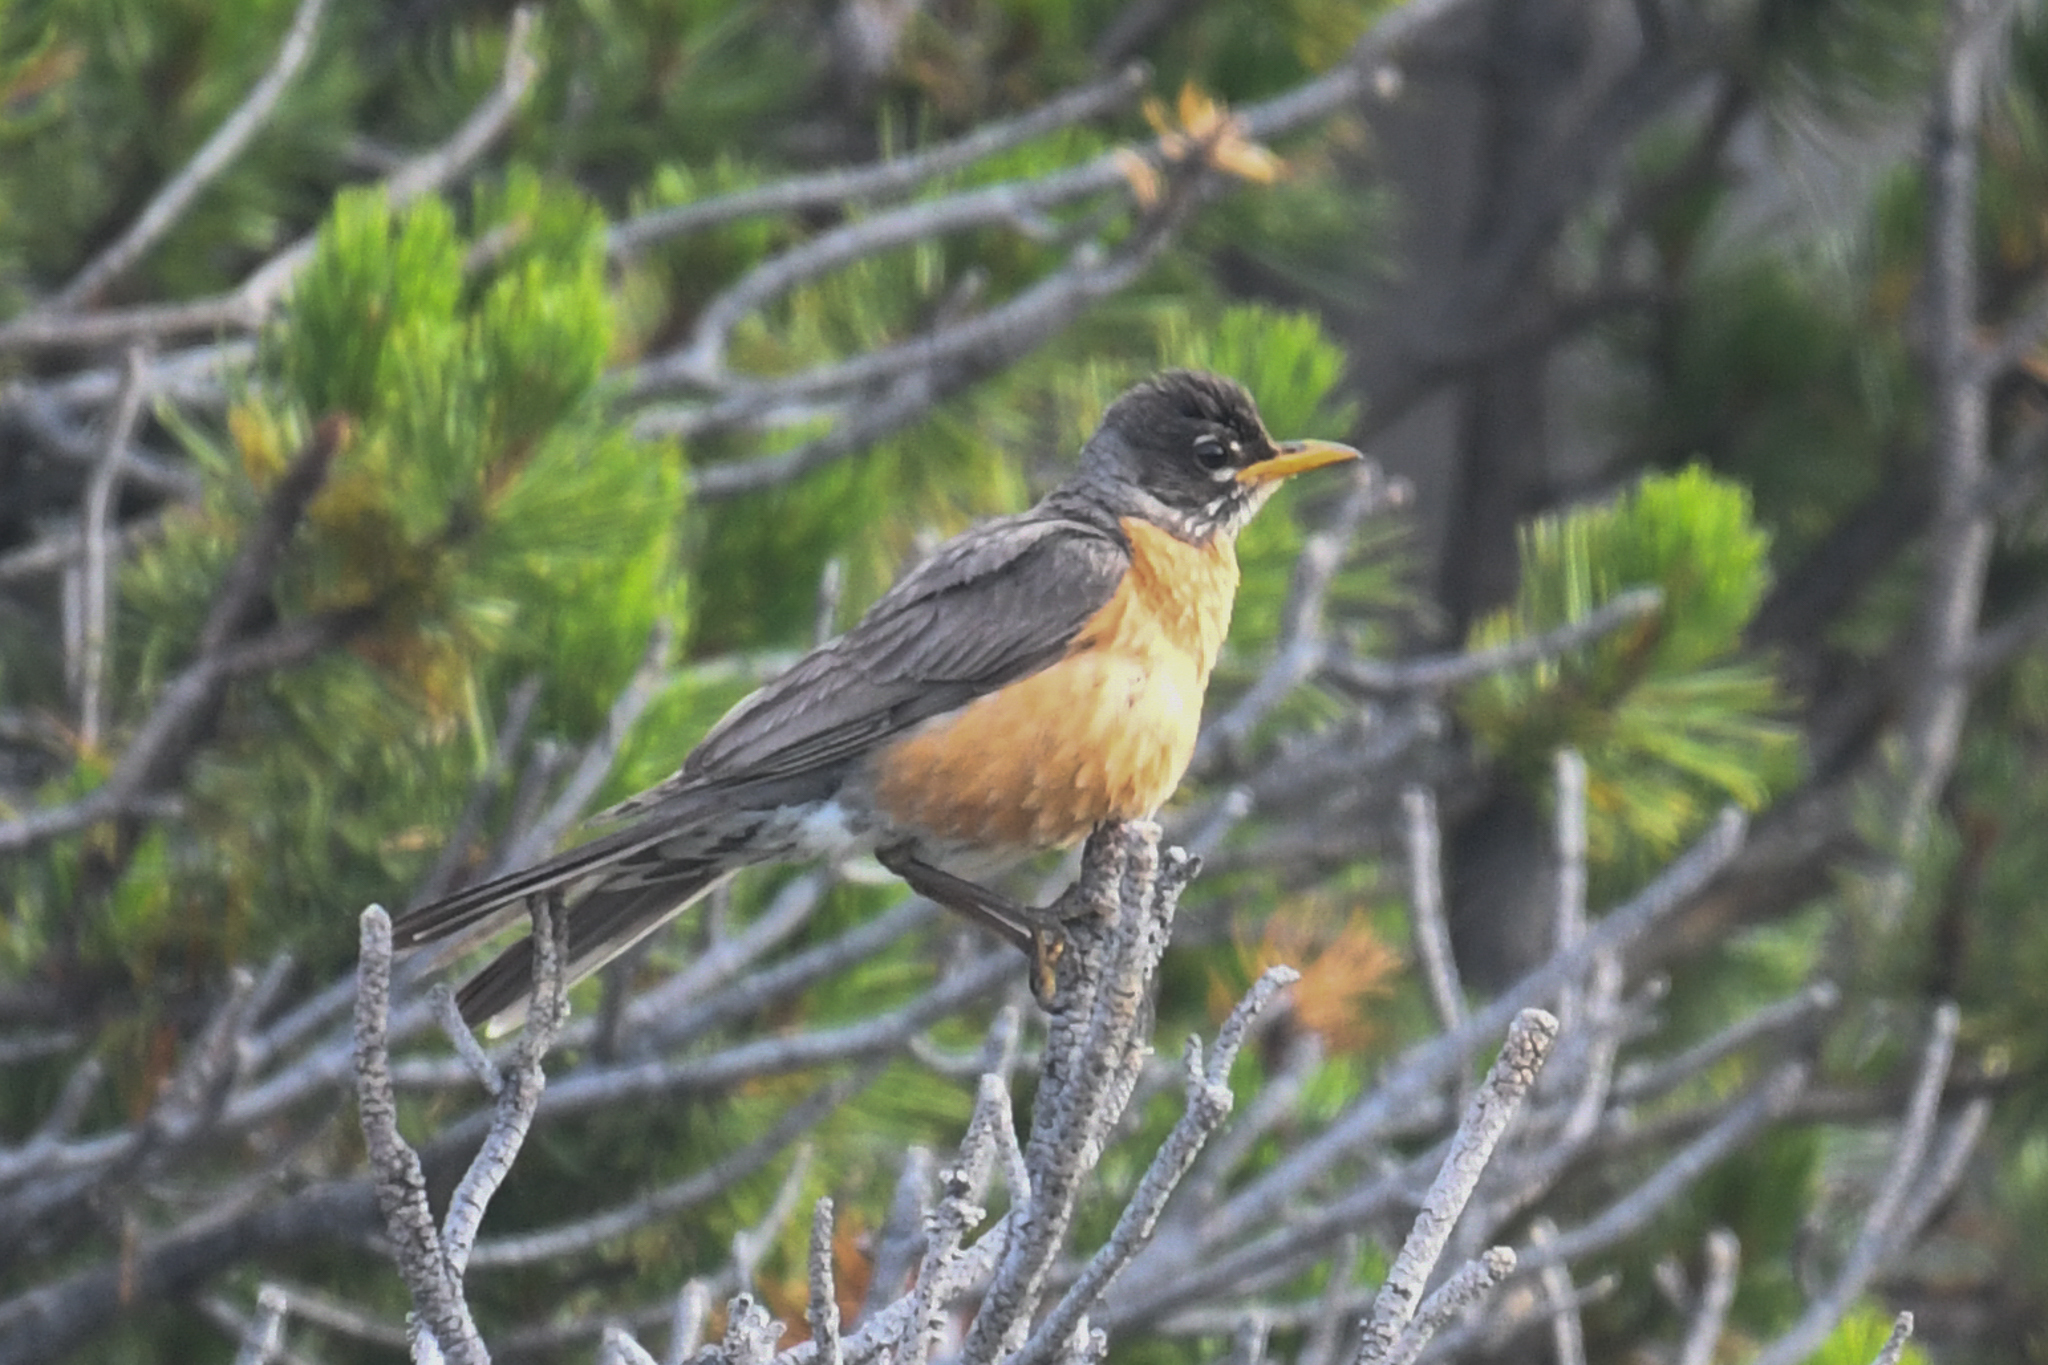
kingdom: Animalia
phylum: Chordata
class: Aves
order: Passeriformes
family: Turdidae
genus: Turdus
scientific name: Turdus migratorius
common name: American robin
